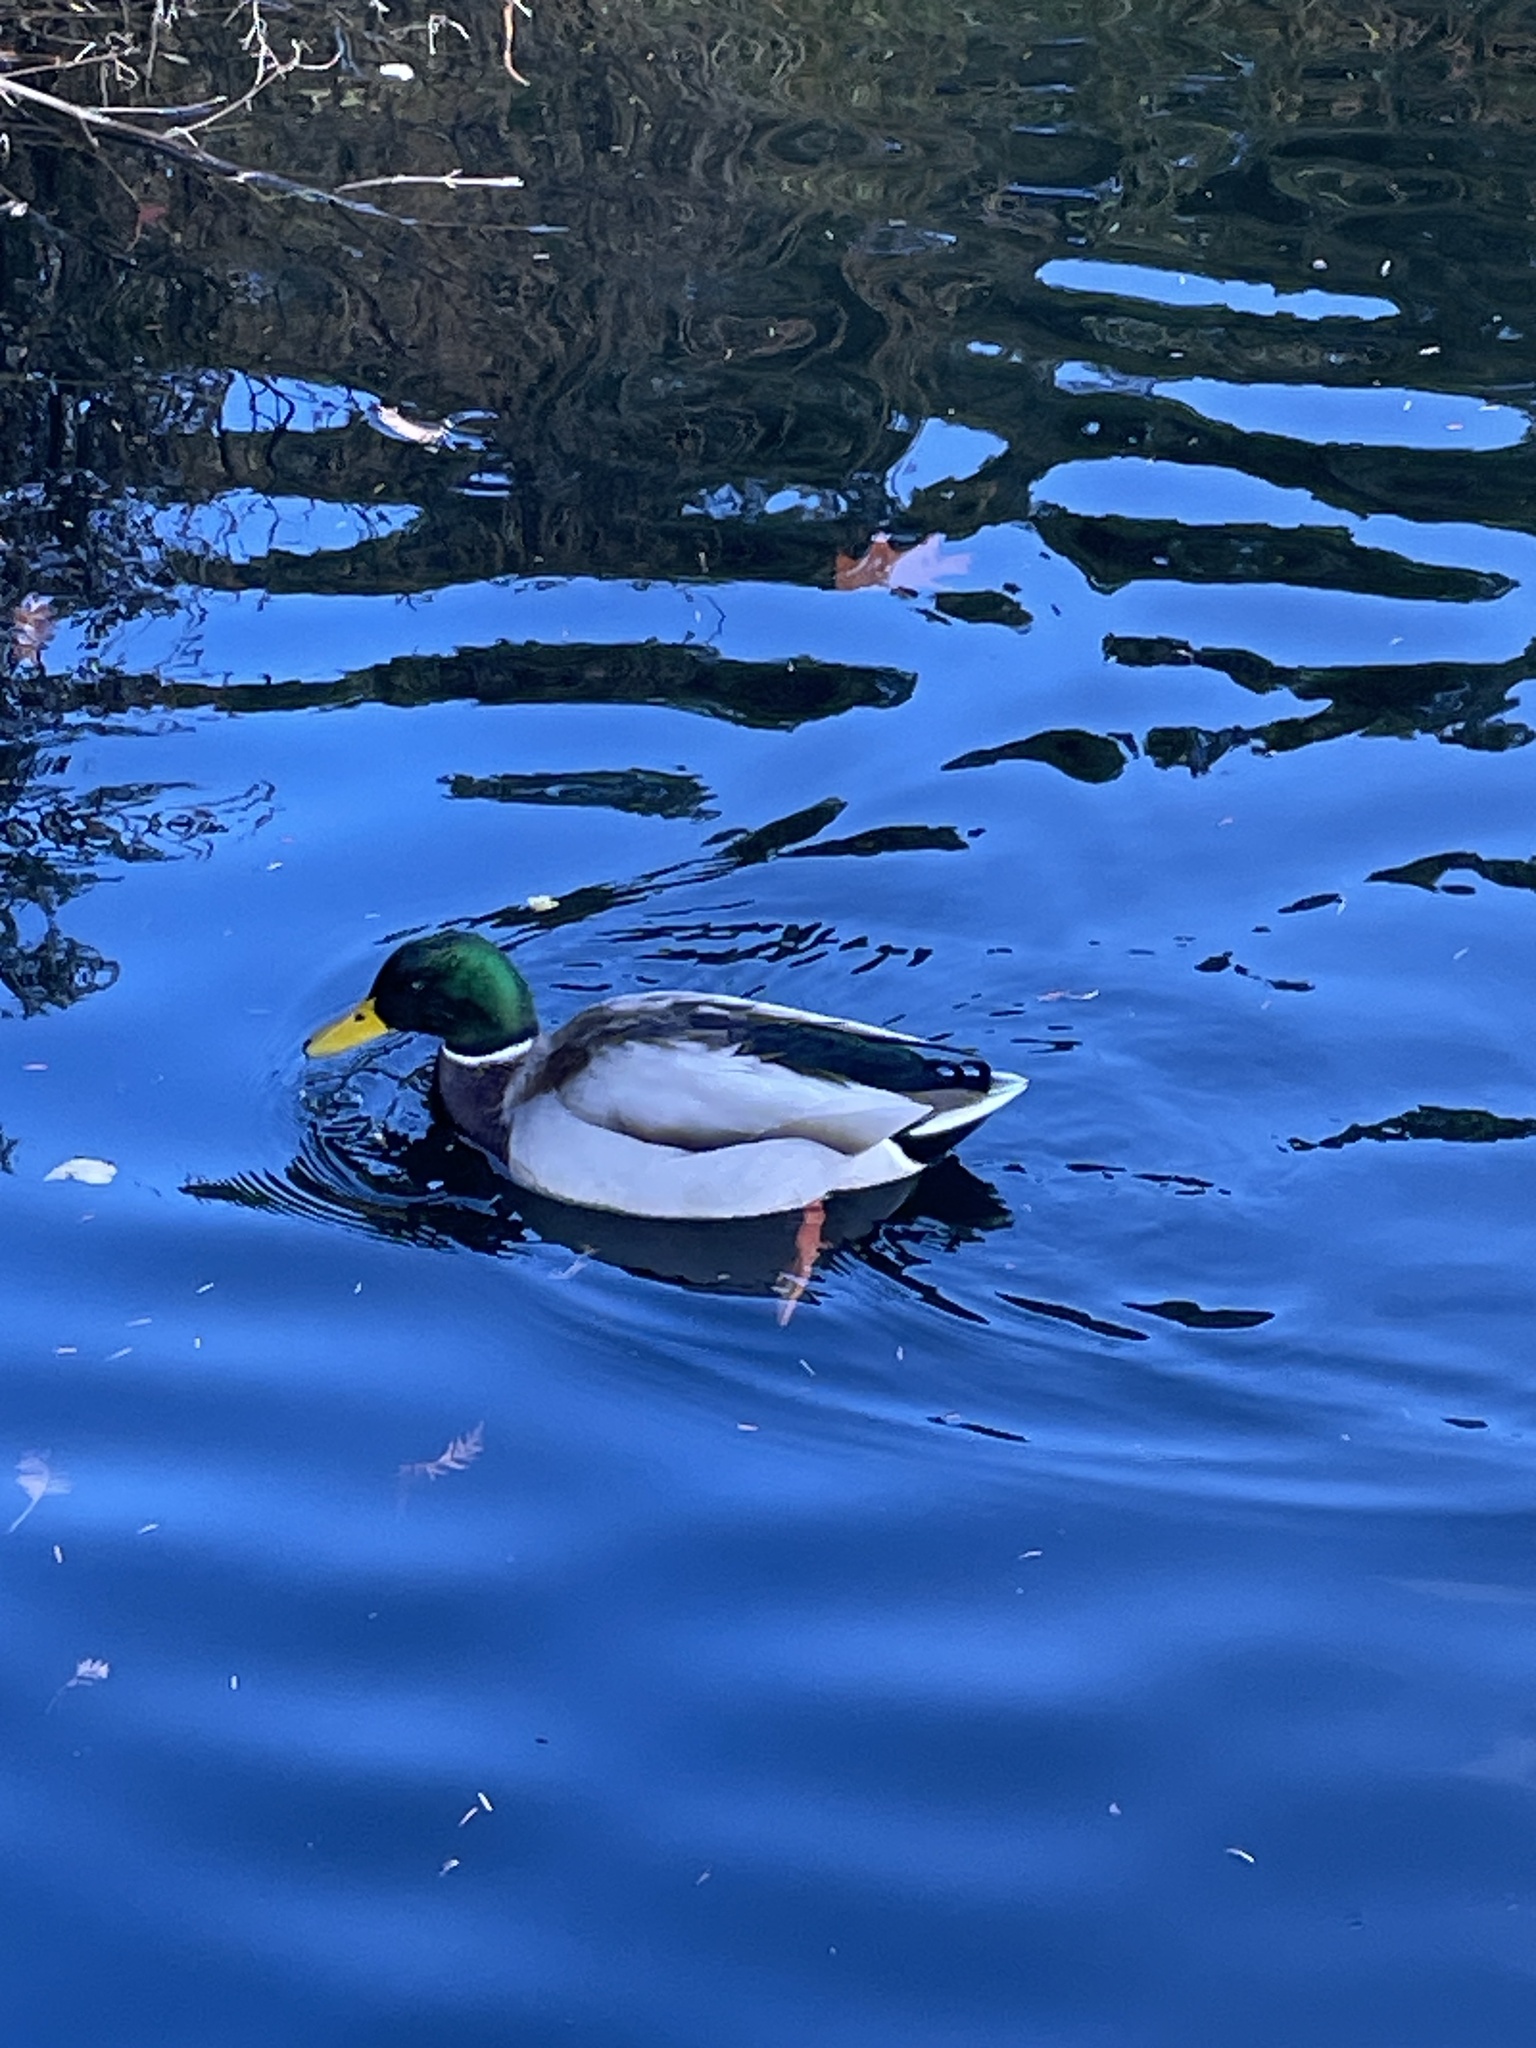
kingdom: Animalia
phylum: Chordata
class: Aves
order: Anseriformes
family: Anatidae
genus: Anas
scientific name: Anas platyrhynchos
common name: Mallard
